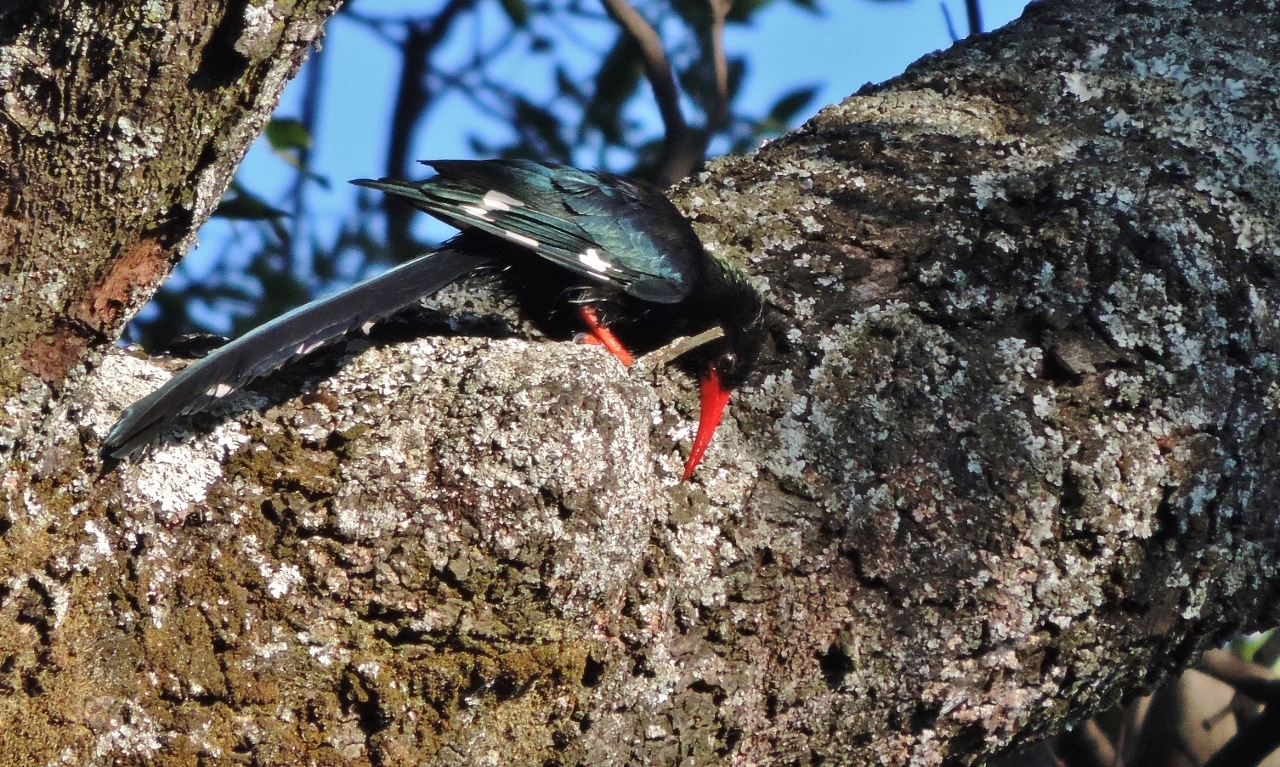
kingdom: Animalia
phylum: Chordata
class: Aves
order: Bucerotiformes
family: Phoeniculidae
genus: Phoeniculus
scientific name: Phoeniculus purpureus
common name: Green woodhoopoe
